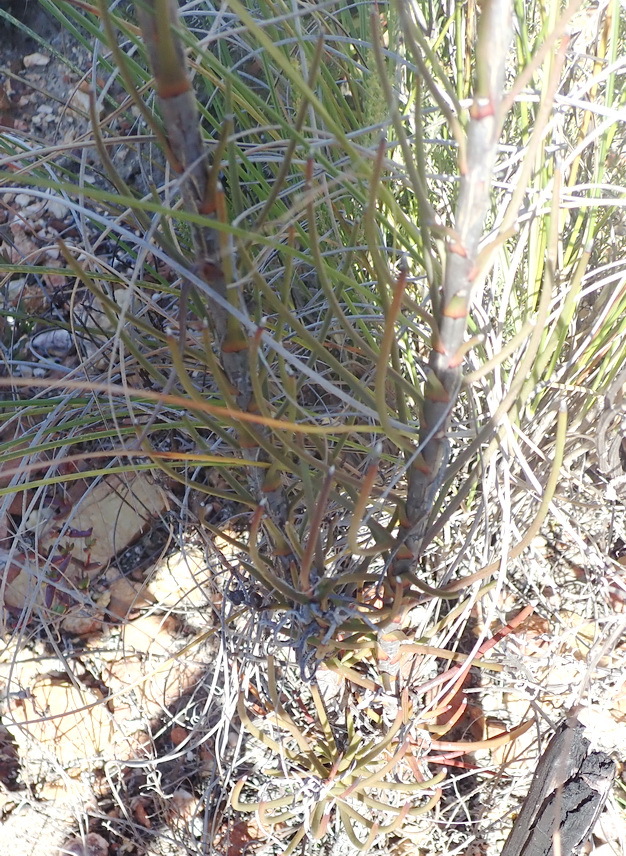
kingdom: Plantae
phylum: Tracheophyta
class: Magnoliopsida
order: Asterales
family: Asteraceae
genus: Athanasia
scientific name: Athanasia linifolia
